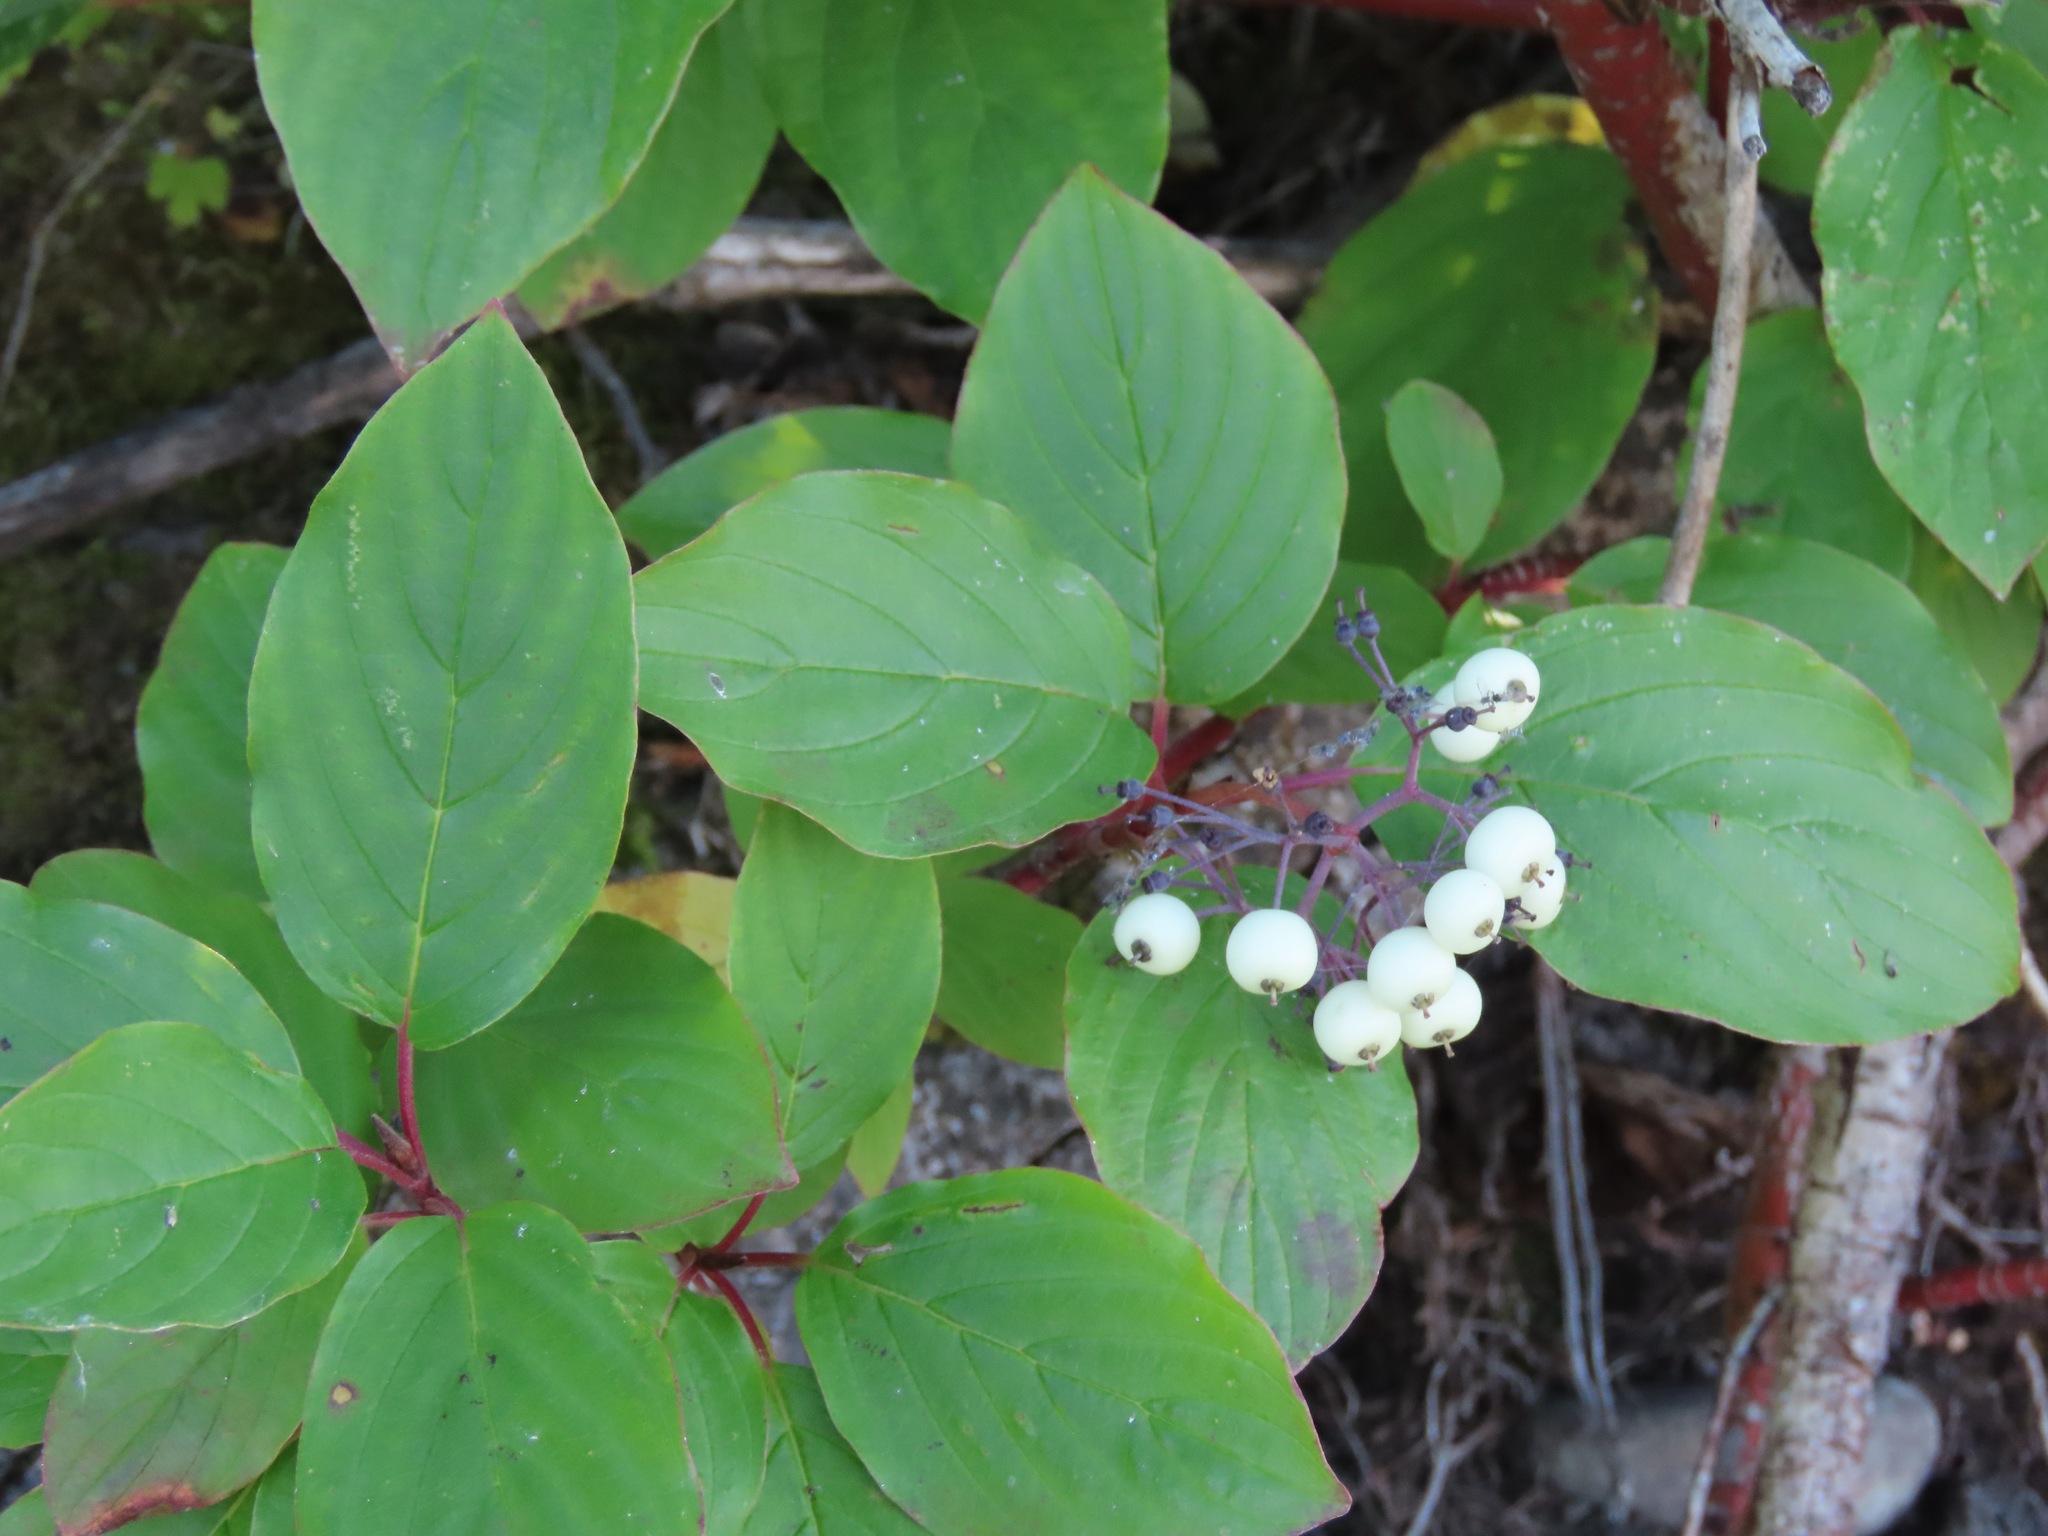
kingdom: Plantae
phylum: Tracheophyta
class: Magnoliopsida
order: Cornales
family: Cornaceae
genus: Cornus
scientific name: Cornus sericea
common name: Red-osier dogwood
